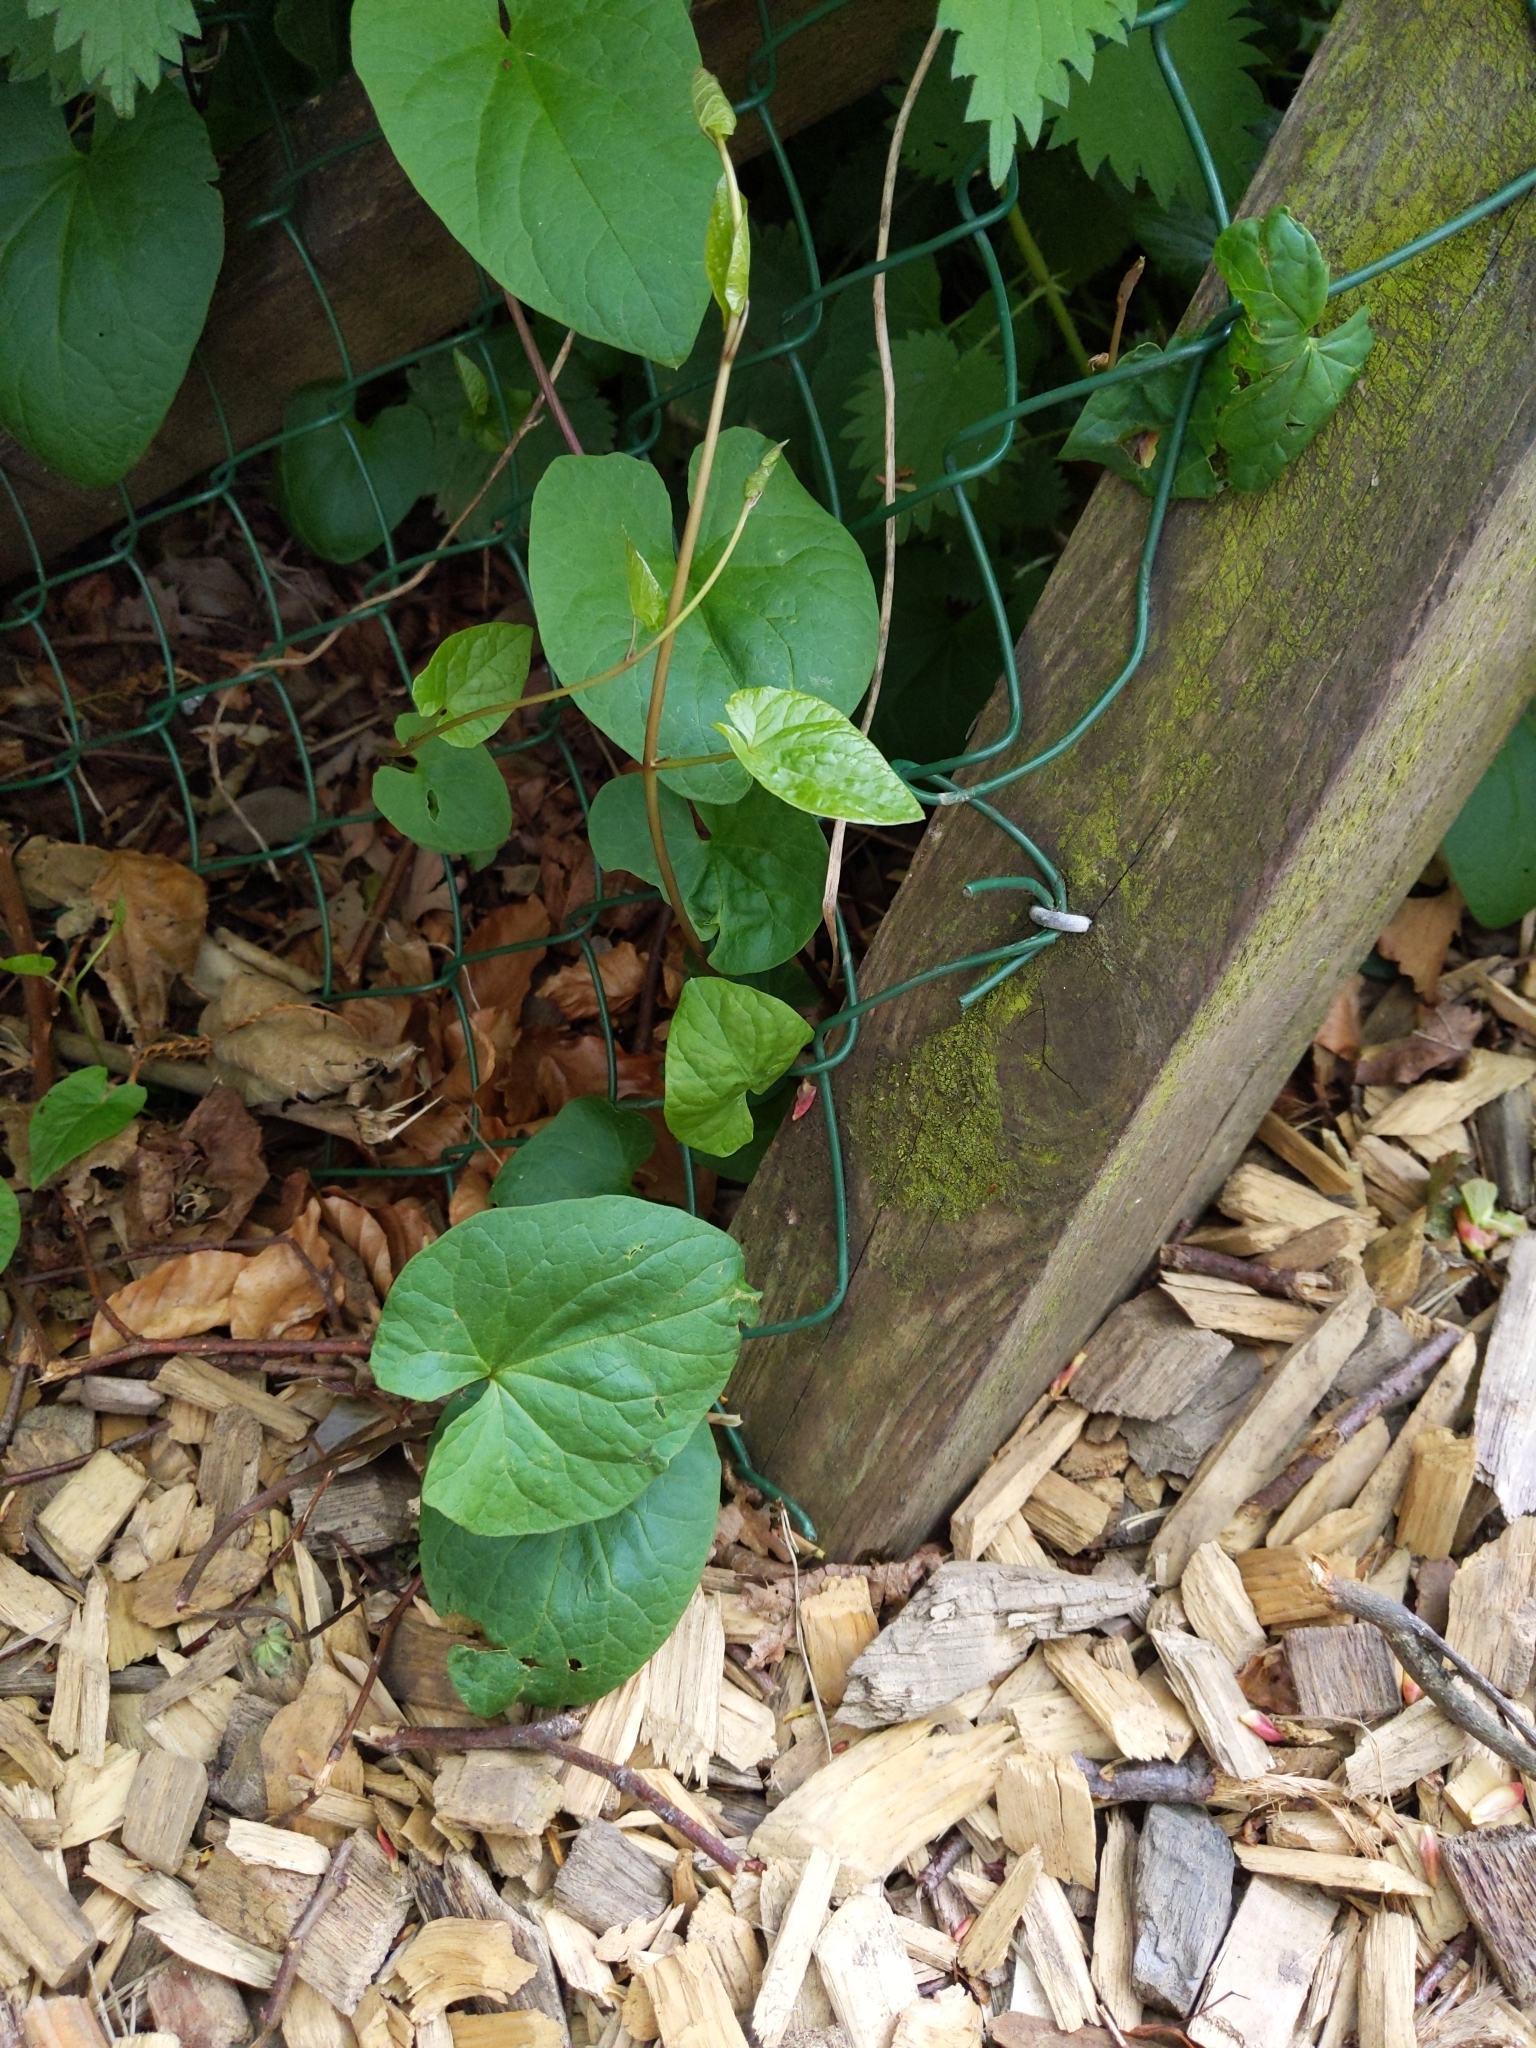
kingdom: Plantae
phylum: Tracheophyta
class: Magnoliopsida
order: Solanales
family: Convolvulaceae
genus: Calystegia
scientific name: Calystegia
